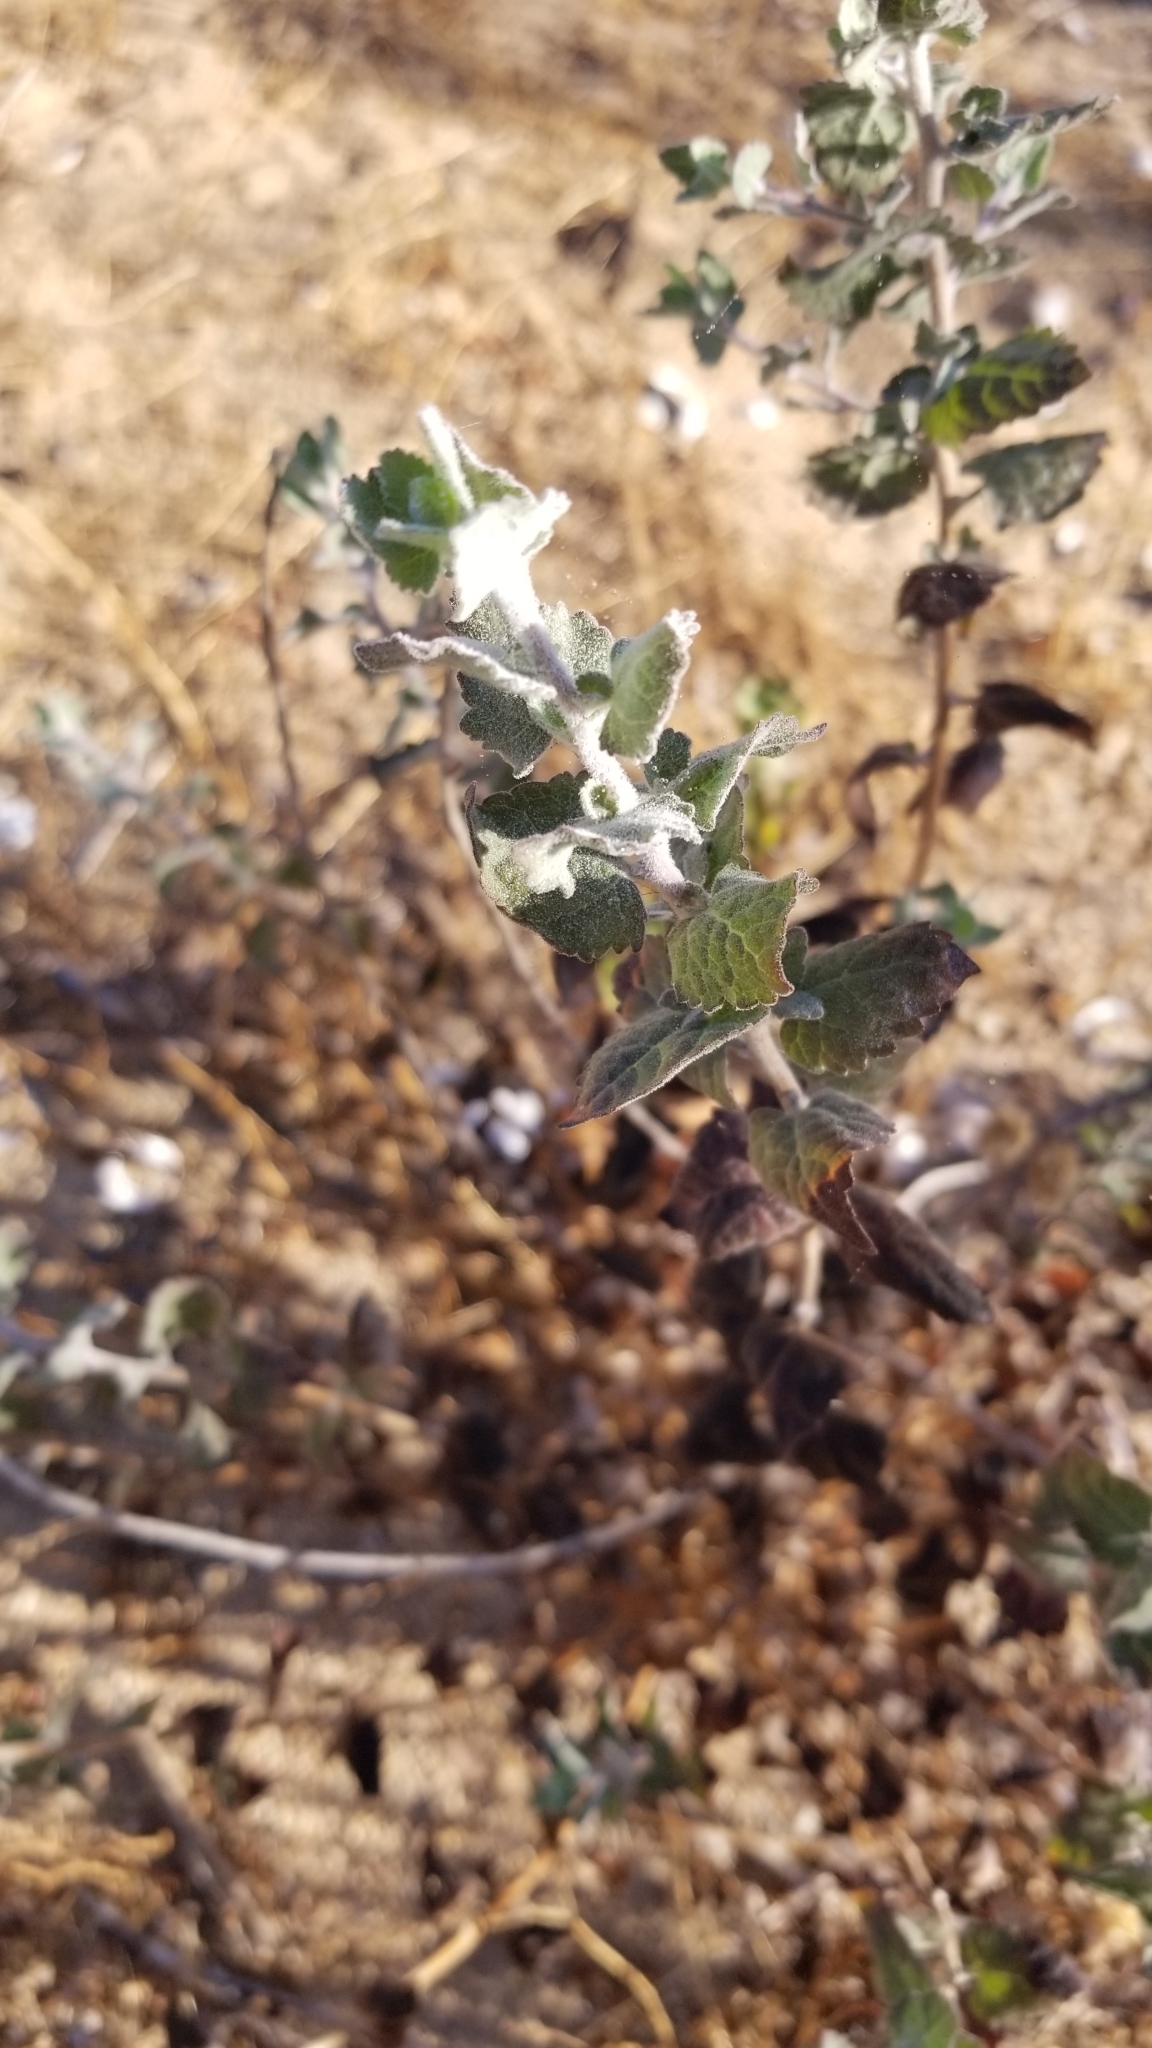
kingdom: Plantae
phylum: Tracheophyta
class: Magnoliopsida
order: Asterales
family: Asteraceae
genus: Brickellia
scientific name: Brickellia californica
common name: California brickellbush
